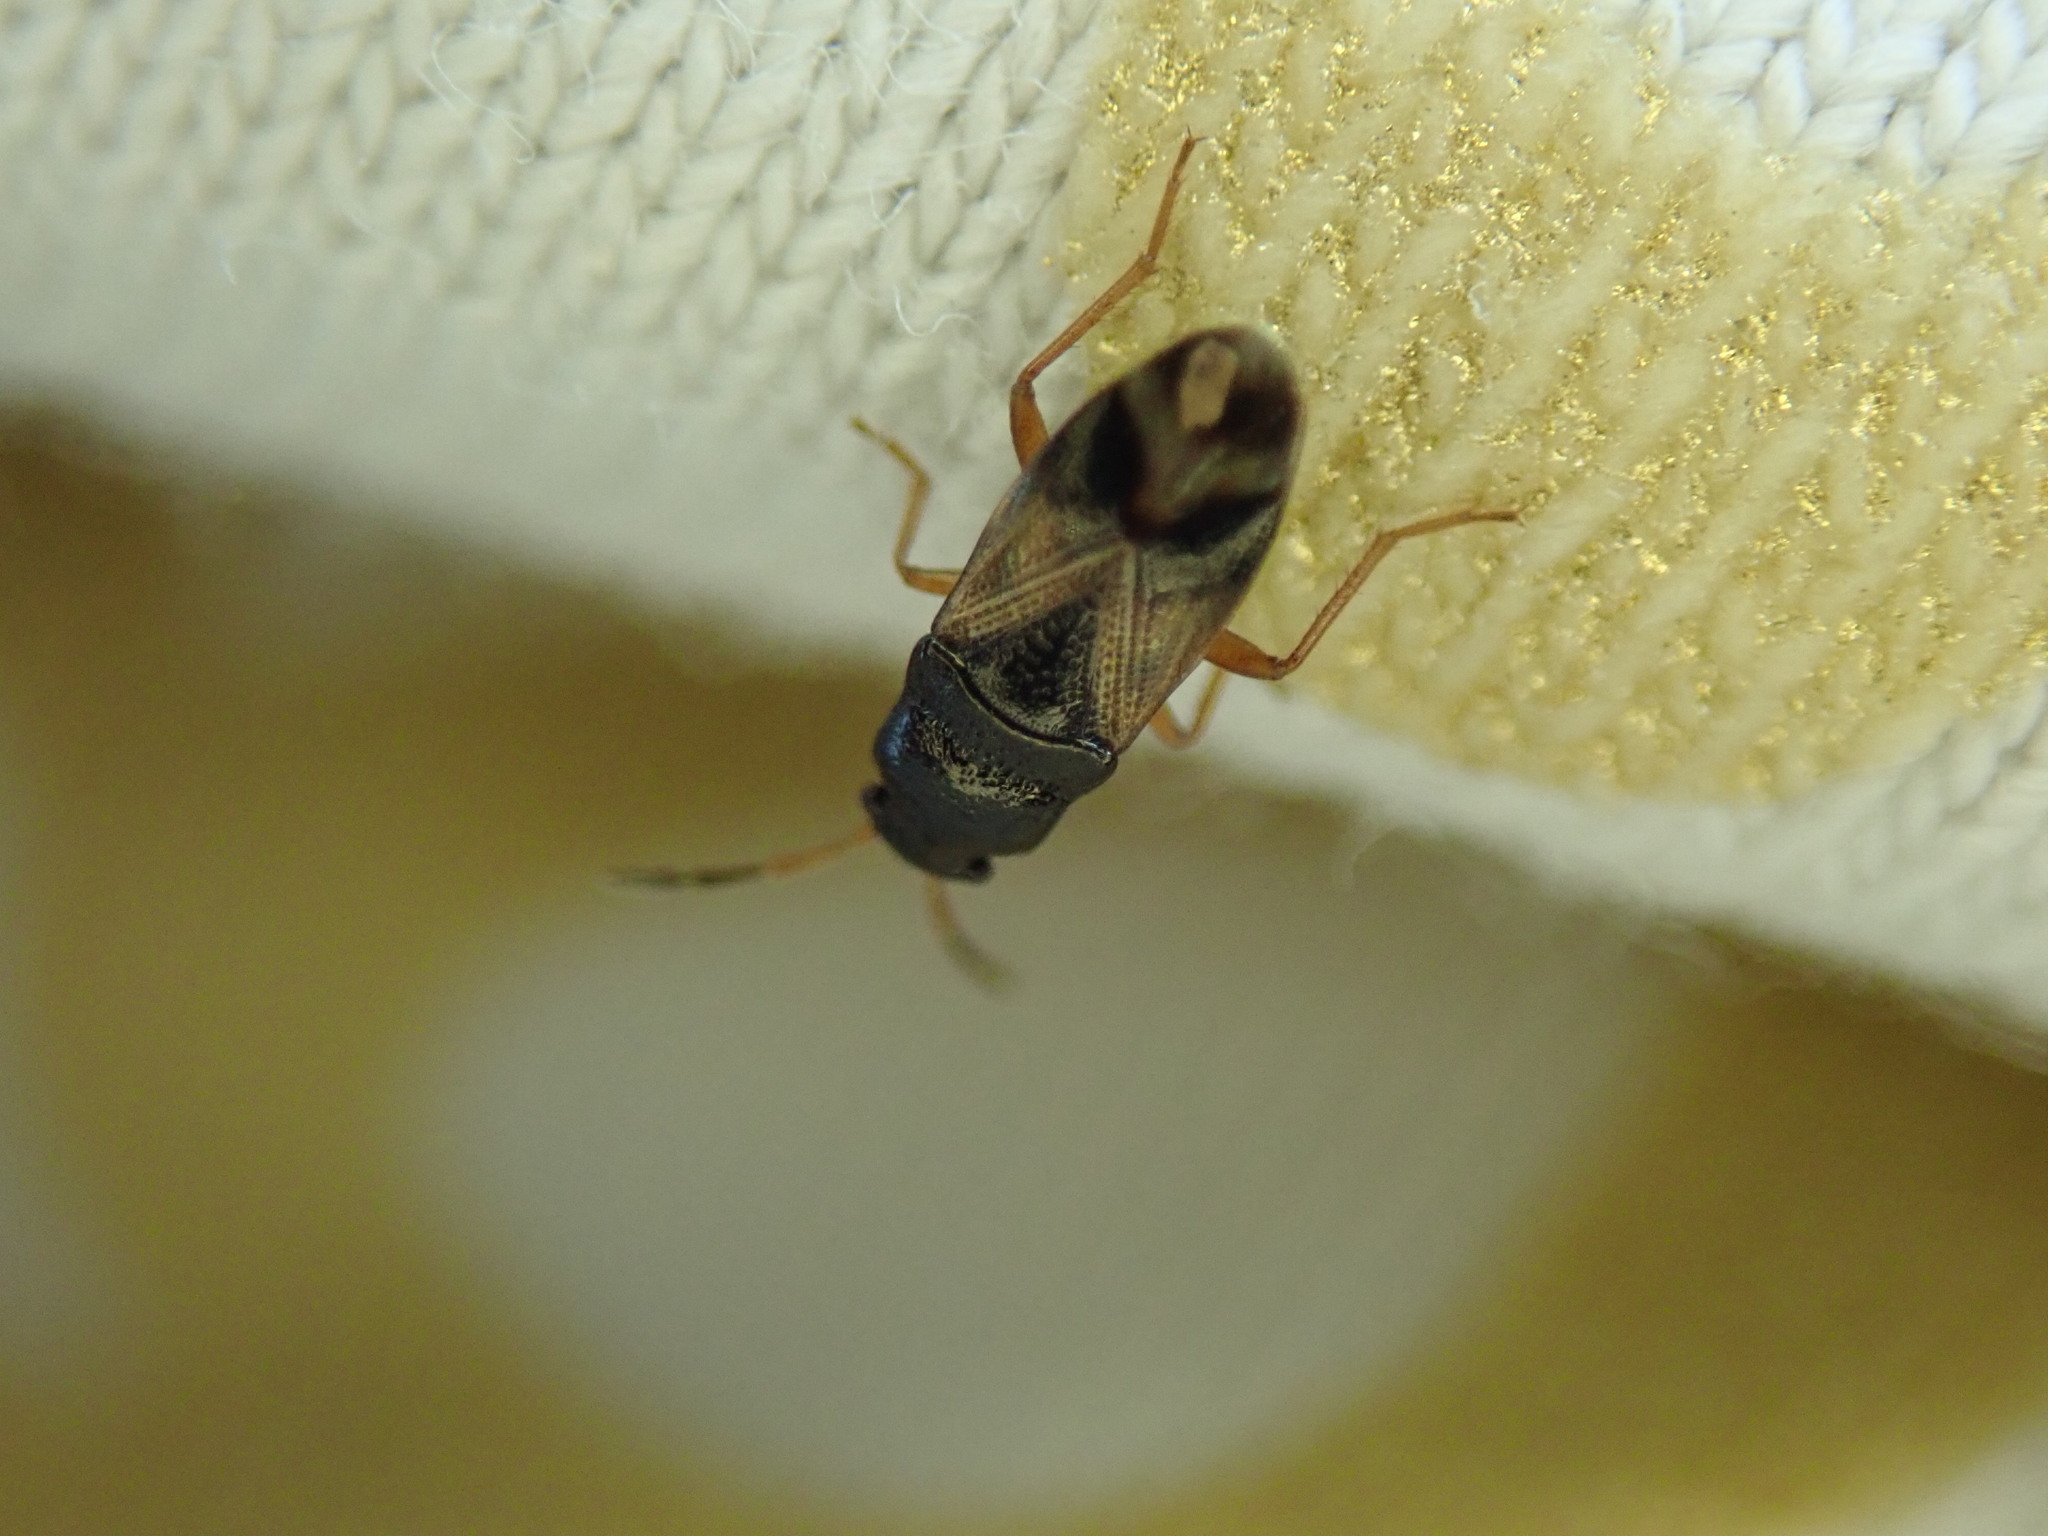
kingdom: Animalia
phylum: Arthropoda
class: Insecta
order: Hemiptera
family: Rhyparochromidae
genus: Megalonotus
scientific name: Megalonotus praetextatus
